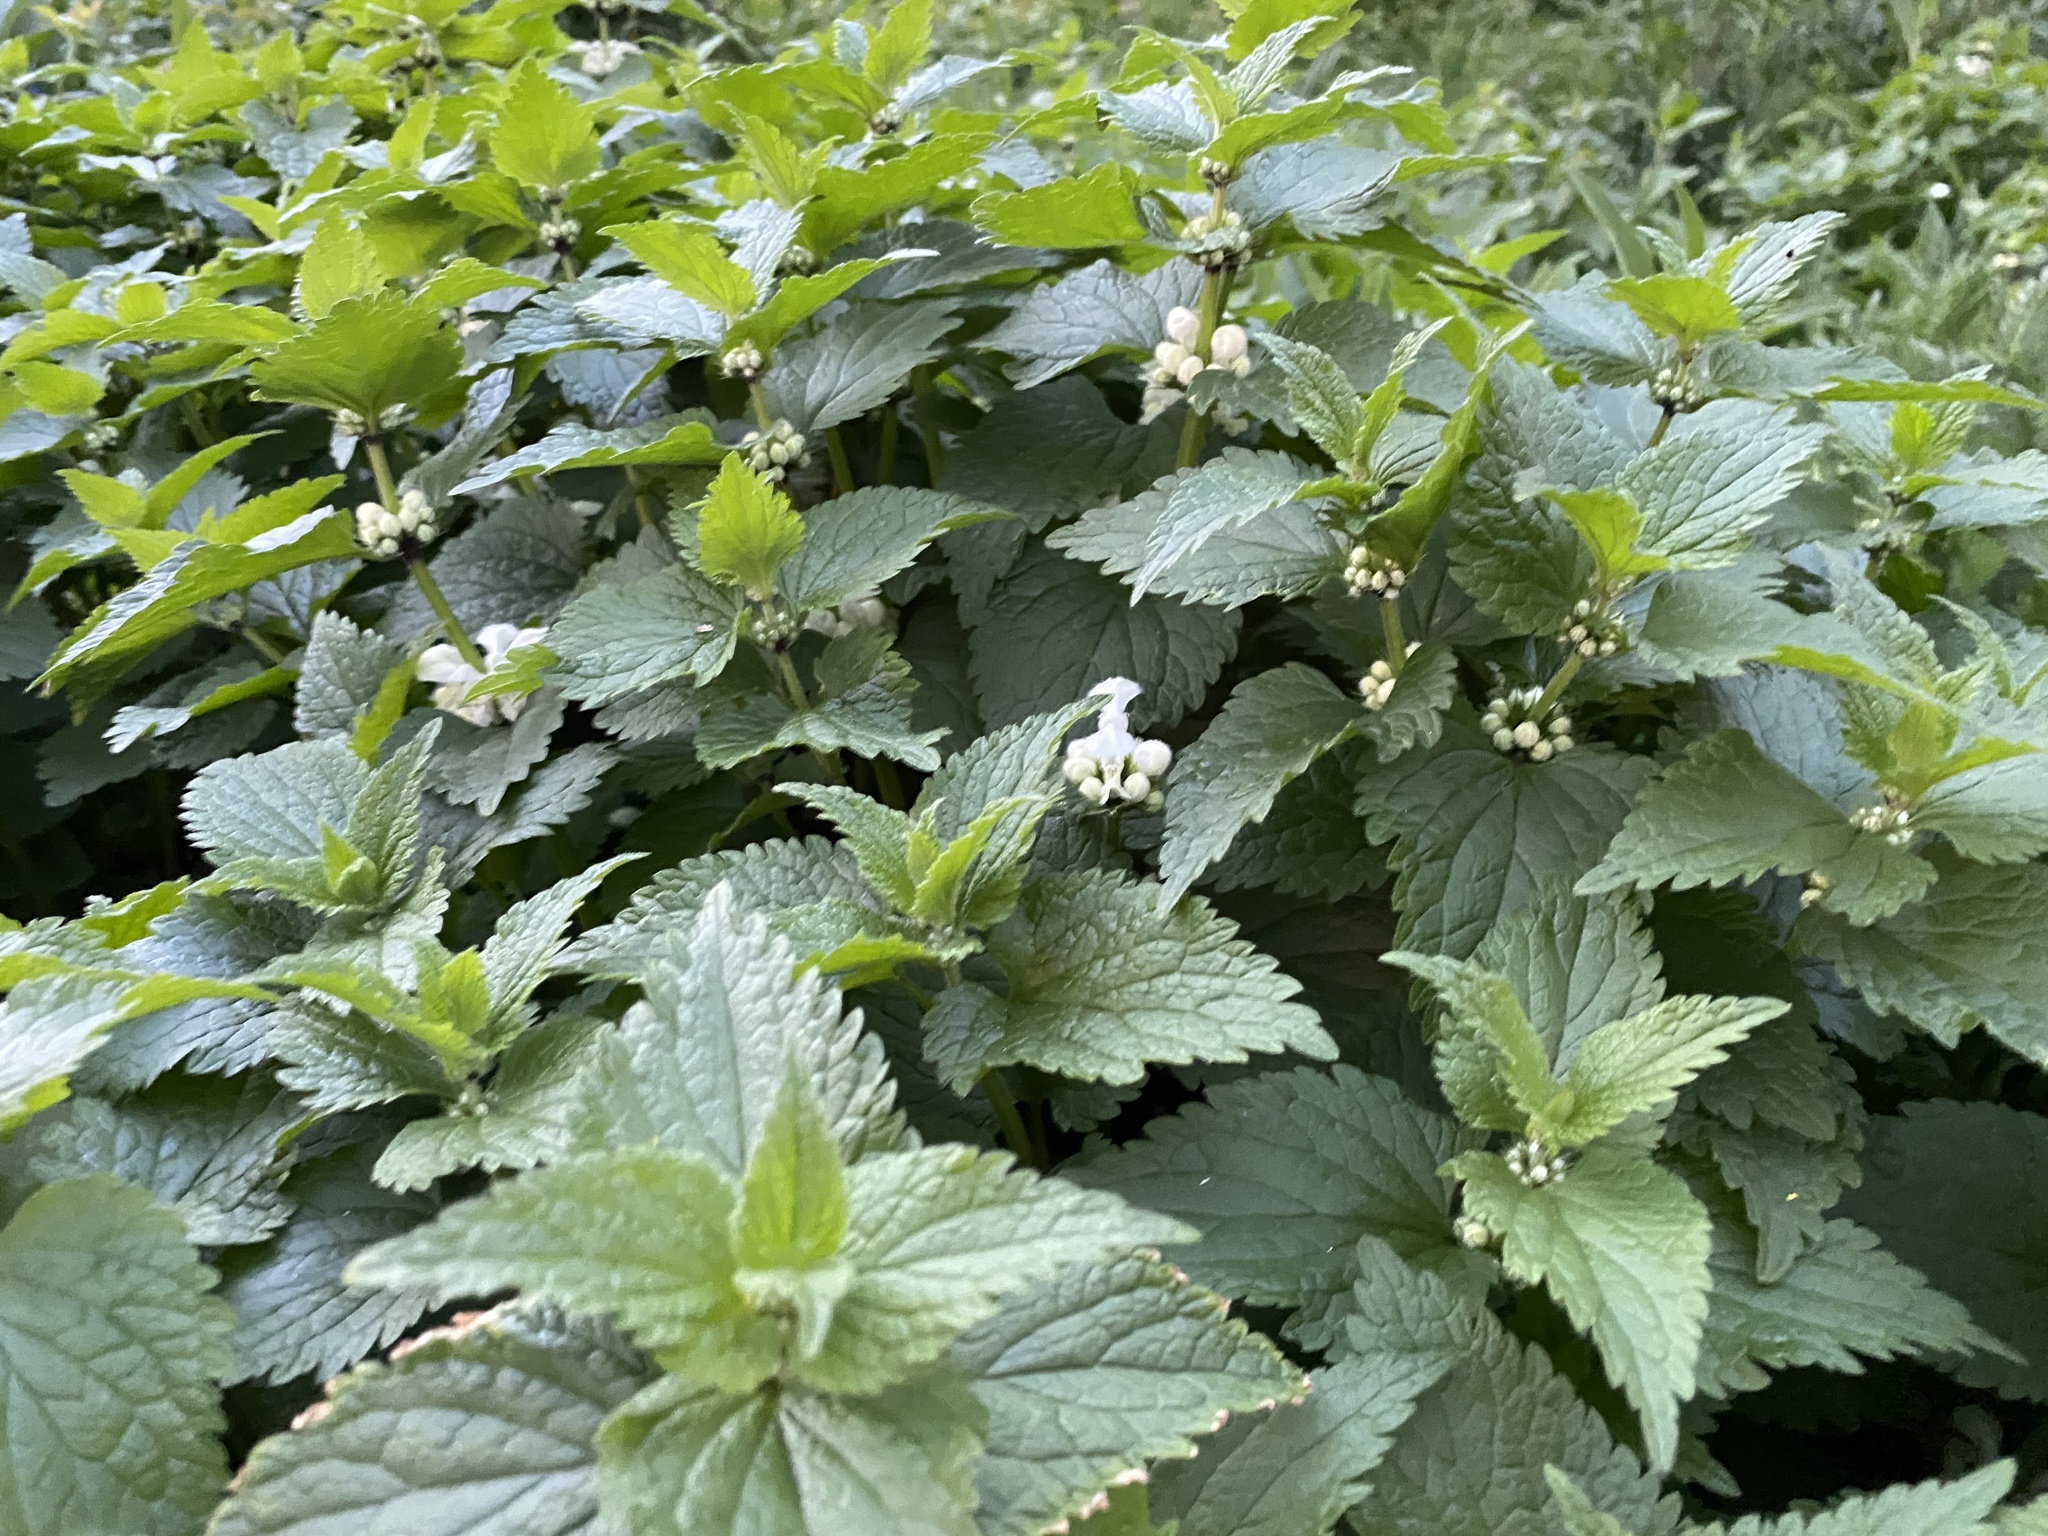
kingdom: Plantae
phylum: Tracheophyta
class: Magnoliopsida
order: Lamiales
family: Lamiaceae
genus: Lamium
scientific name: Lamium album
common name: White dead-nettle
